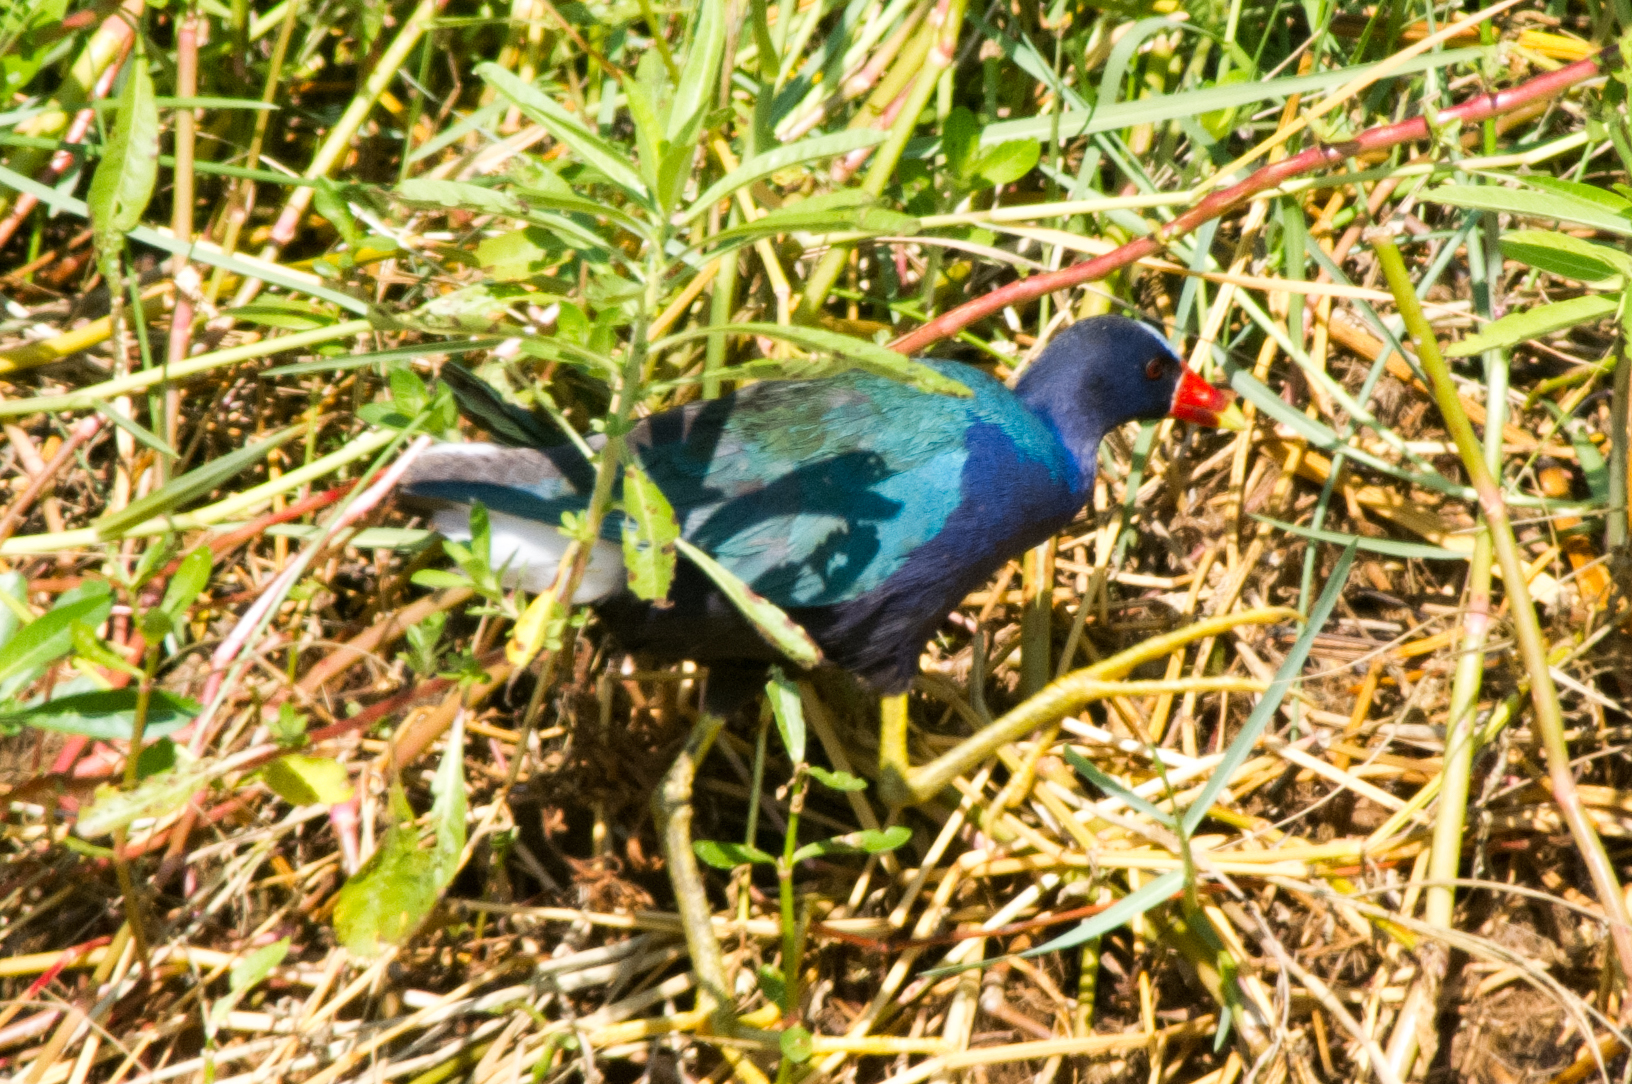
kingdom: Animalia
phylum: Chordata
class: Aves
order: Gruiformes
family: Rallidae
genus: Porphyrio
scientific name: Porphyrio martinica
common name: Purple gallinule
